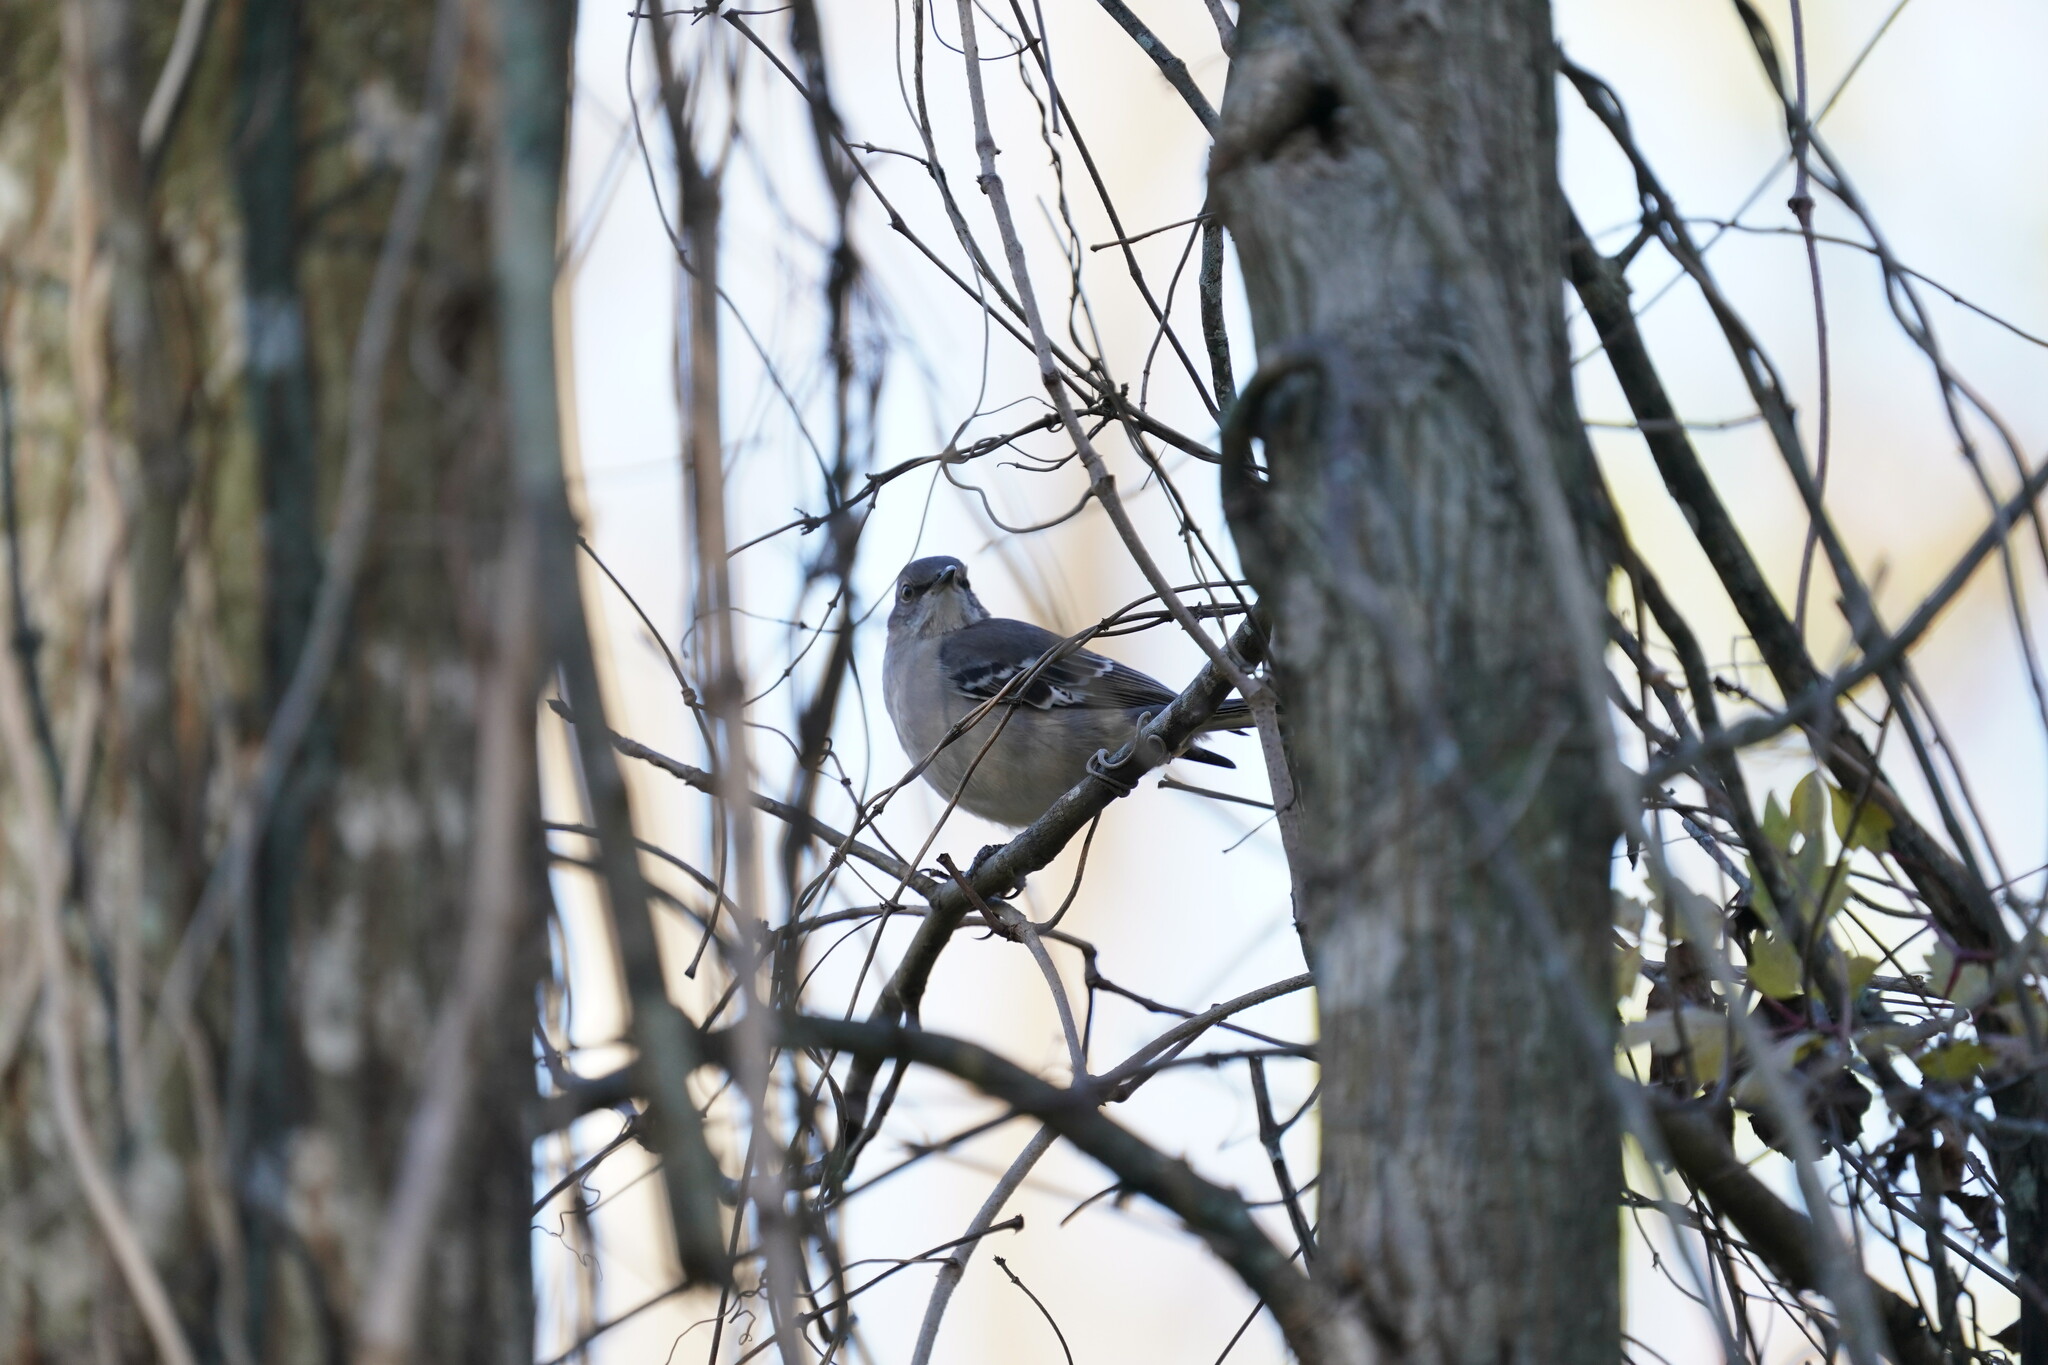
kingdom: Animalia
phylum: Chordata
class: Aves
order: Passeriformes
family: Mimidae
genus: Mimus
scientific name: Mimus polyglottos
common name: Northern mockingbird
